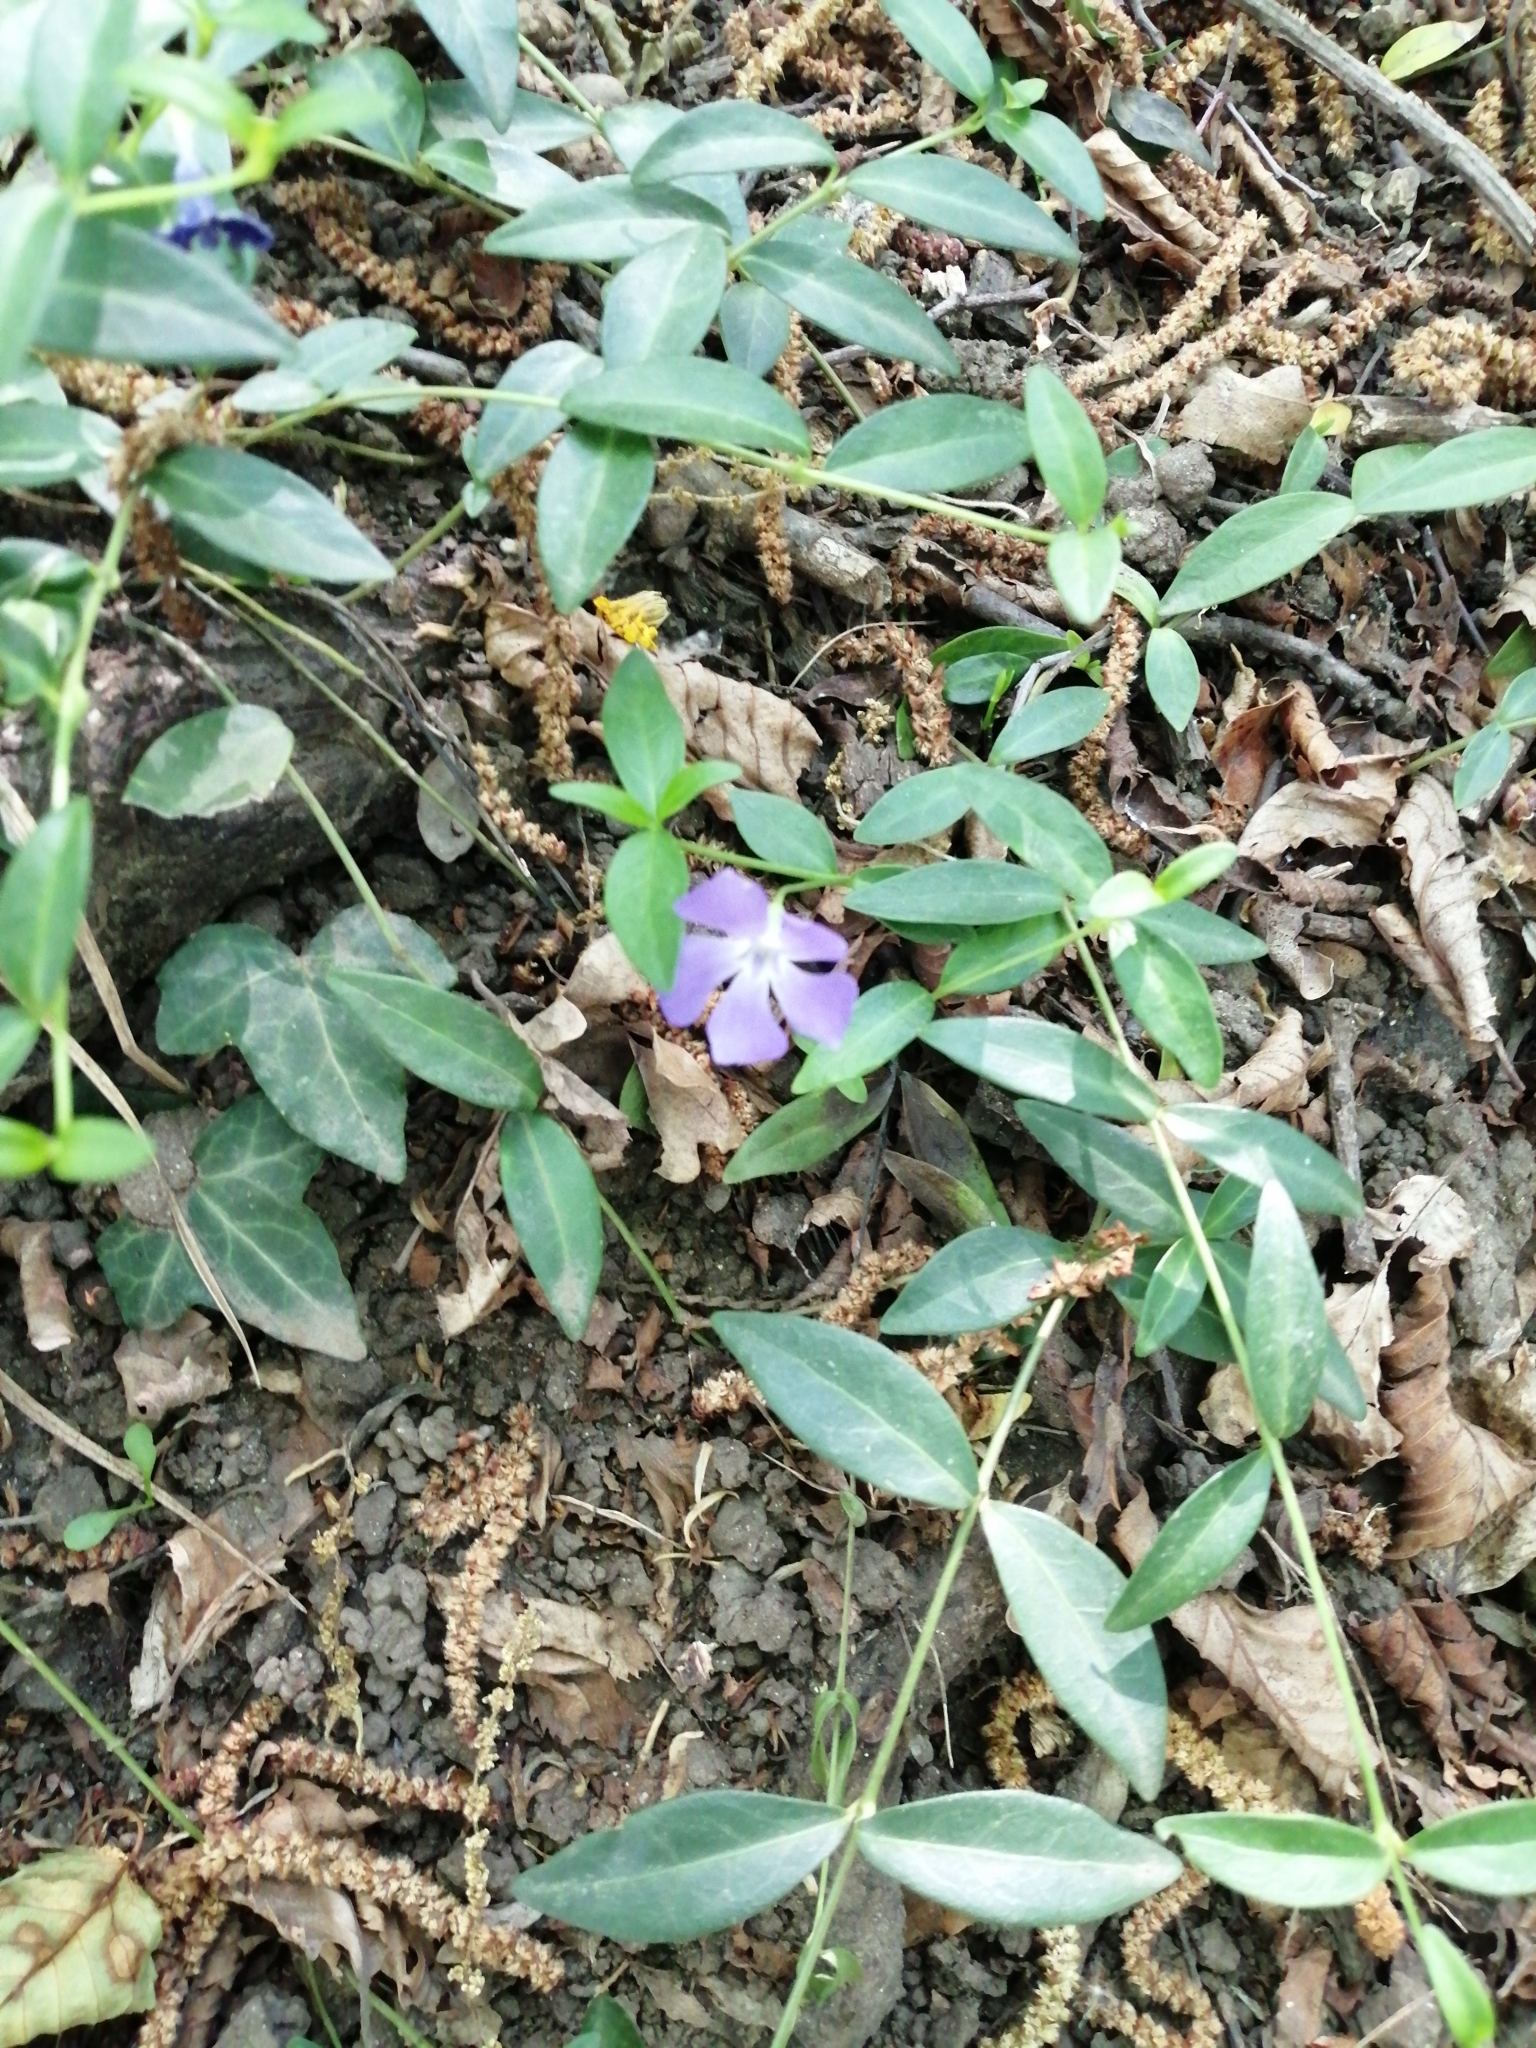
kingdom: Plantae
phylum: Tracheophyta
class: Magnoliopsida
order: Gentianales
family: Apocynaceae
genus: Vinca
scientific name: Vinca minor
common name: Lesser periwinkle
